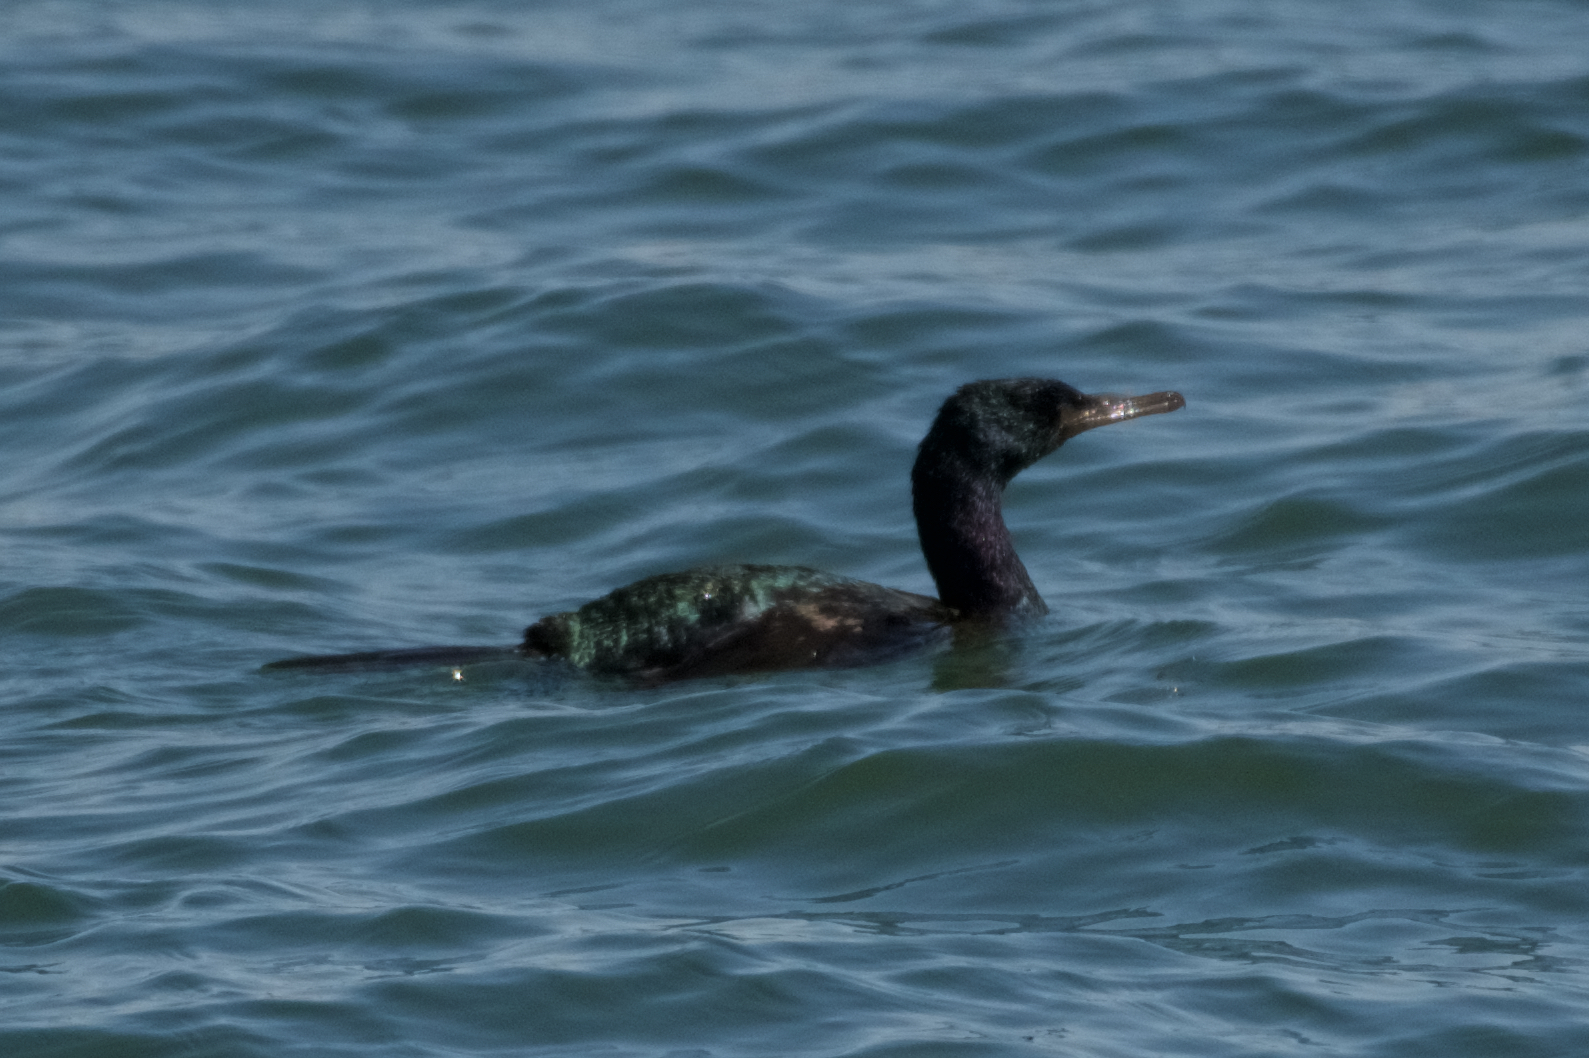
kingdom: Animalia
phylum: Chordata
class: Aves
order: Suliformes
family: Phalacrocoracidae
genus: Phalacrocorax
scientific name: Phalacrocorax pelagicus
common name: Pelagic cormorant
